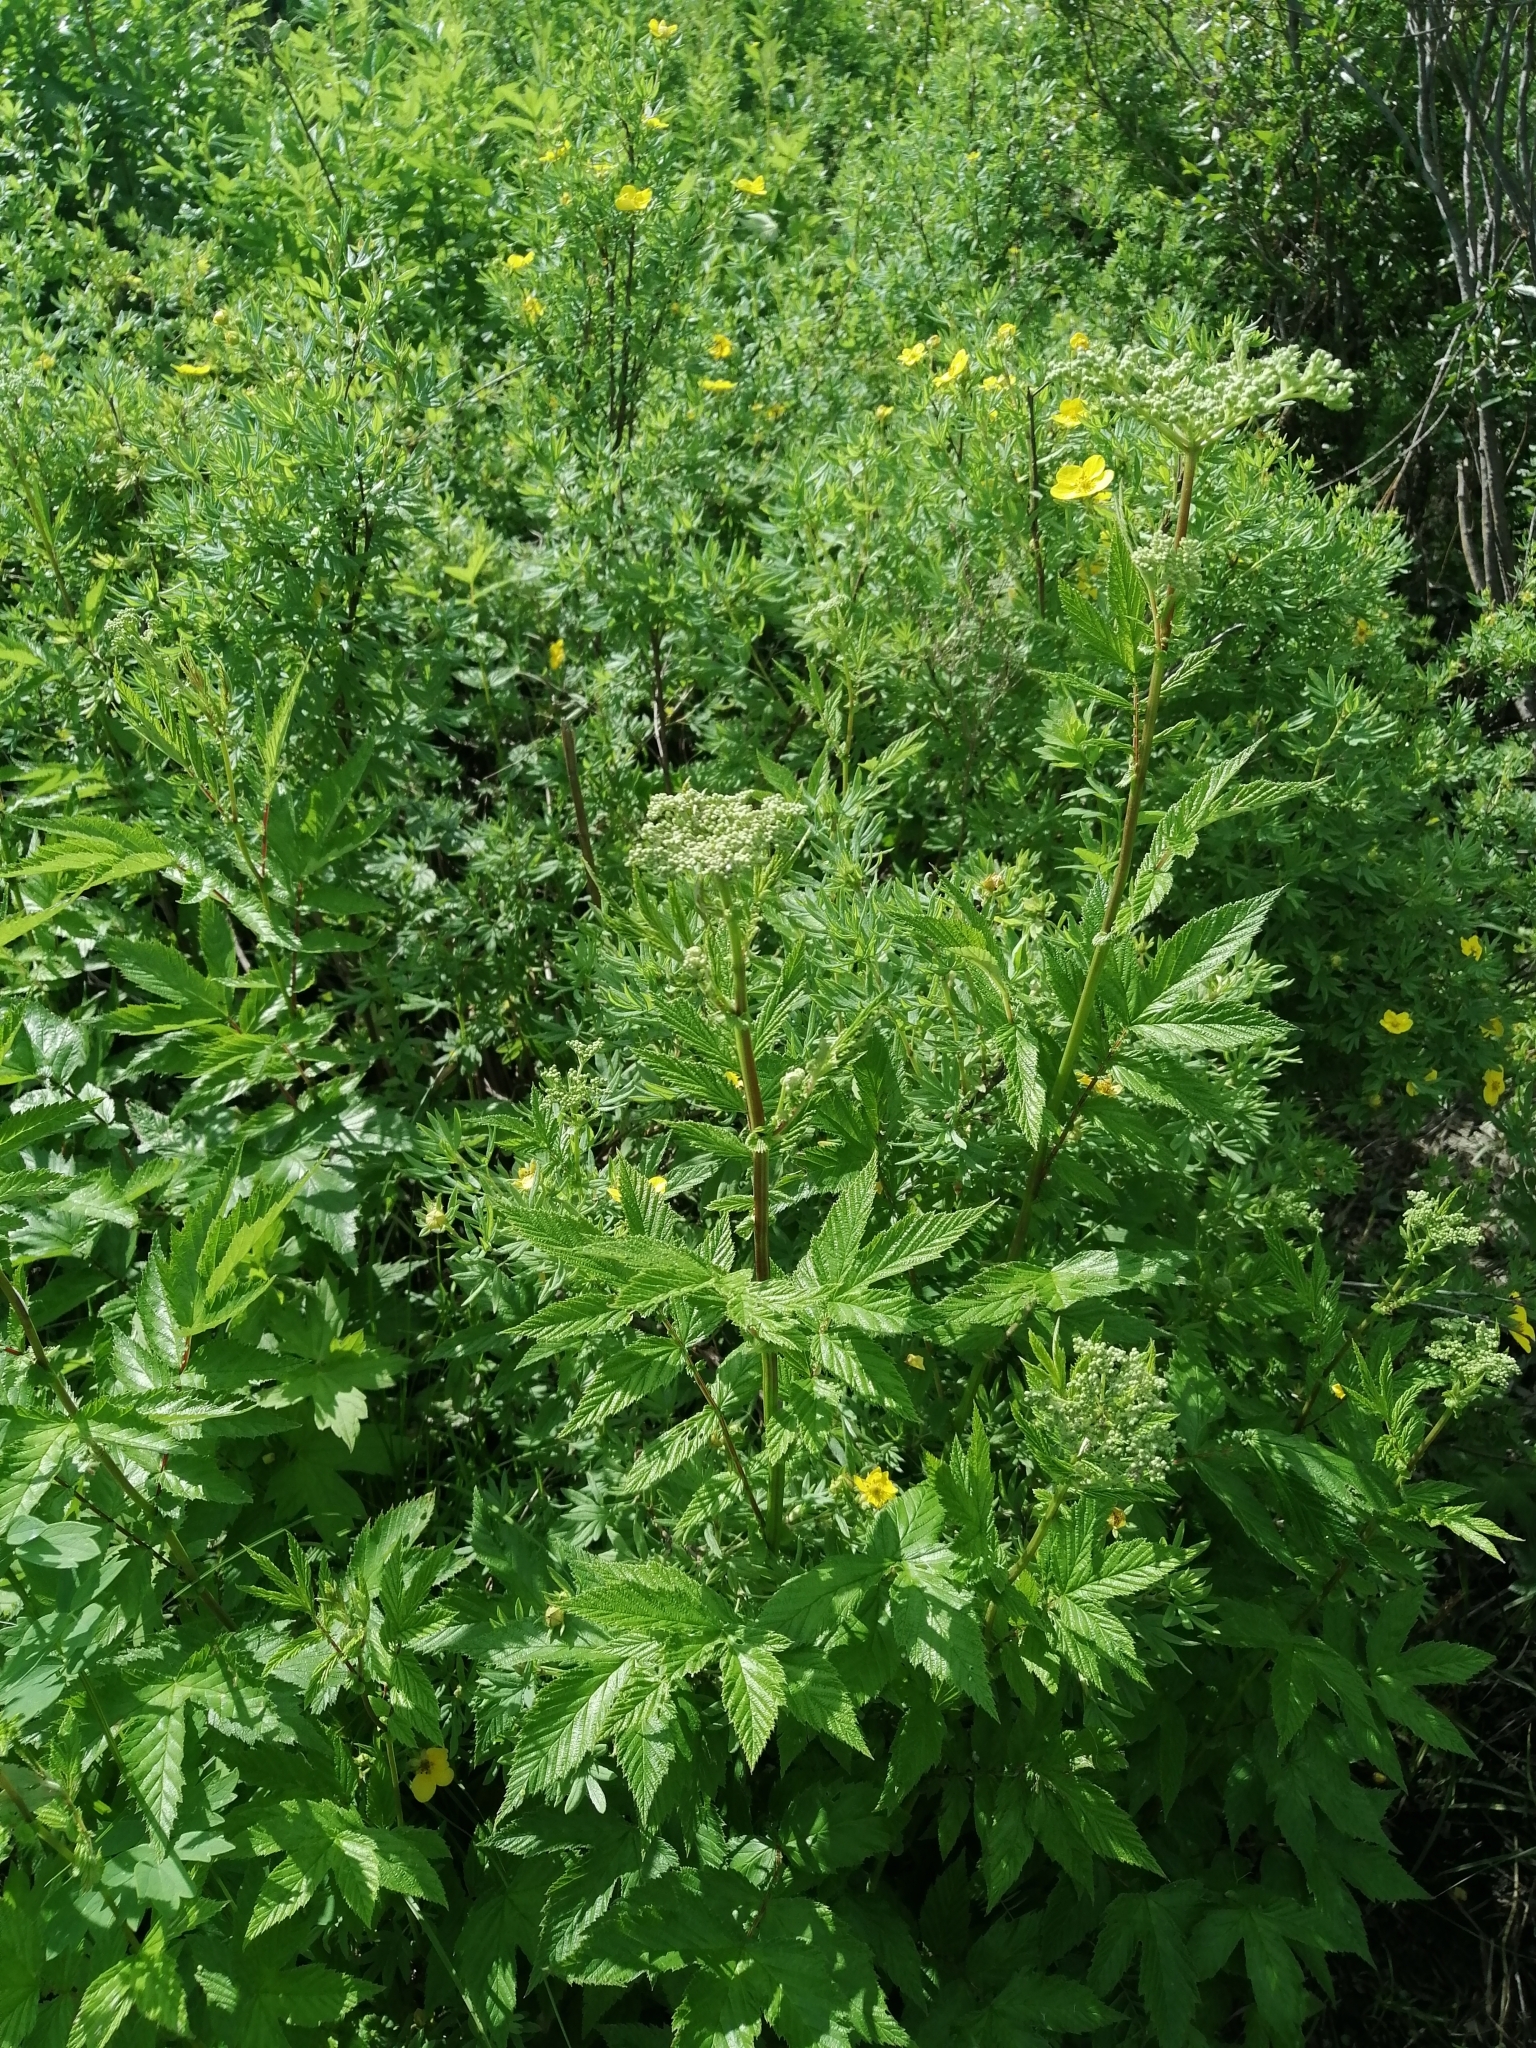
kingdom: Plantae
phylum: Tracheophyta
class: Magnoliopsida
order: Rosales
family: Rosaceae
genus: Filipendula
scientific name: Filipendula ulmaria
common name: Meadowsweet
